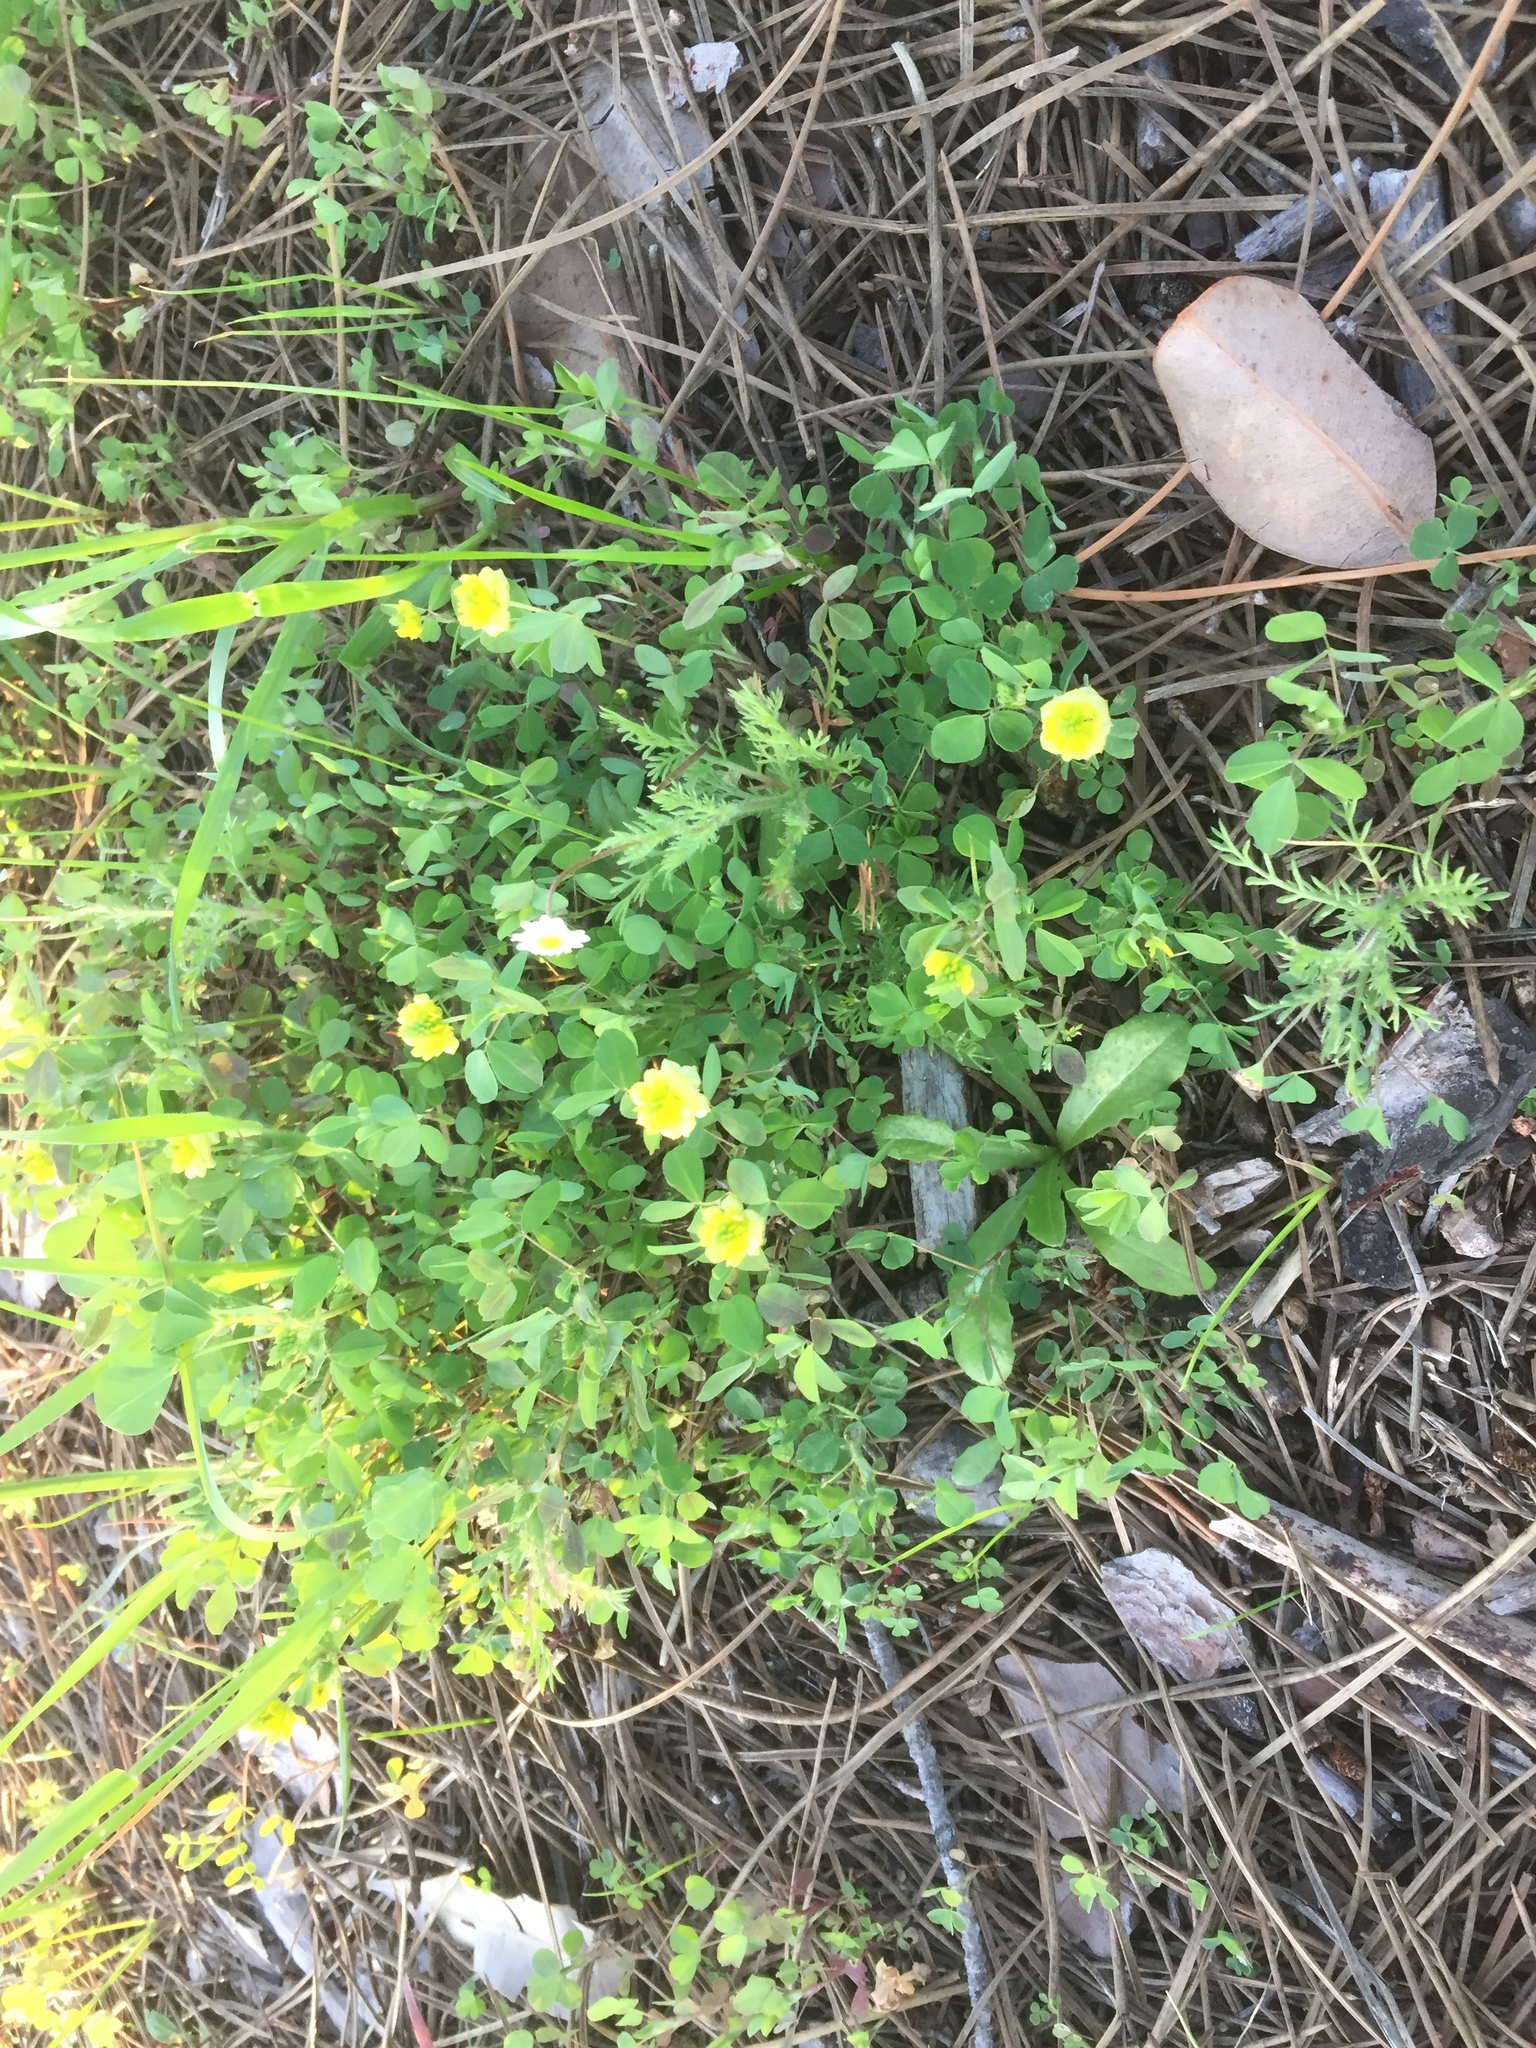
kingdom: Plantae
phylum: Tracheophyta
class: Magnoliopsida
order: Fabales
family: Fabaceae
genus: Trifolium
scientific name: Trifolium campestre
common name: Field clover
